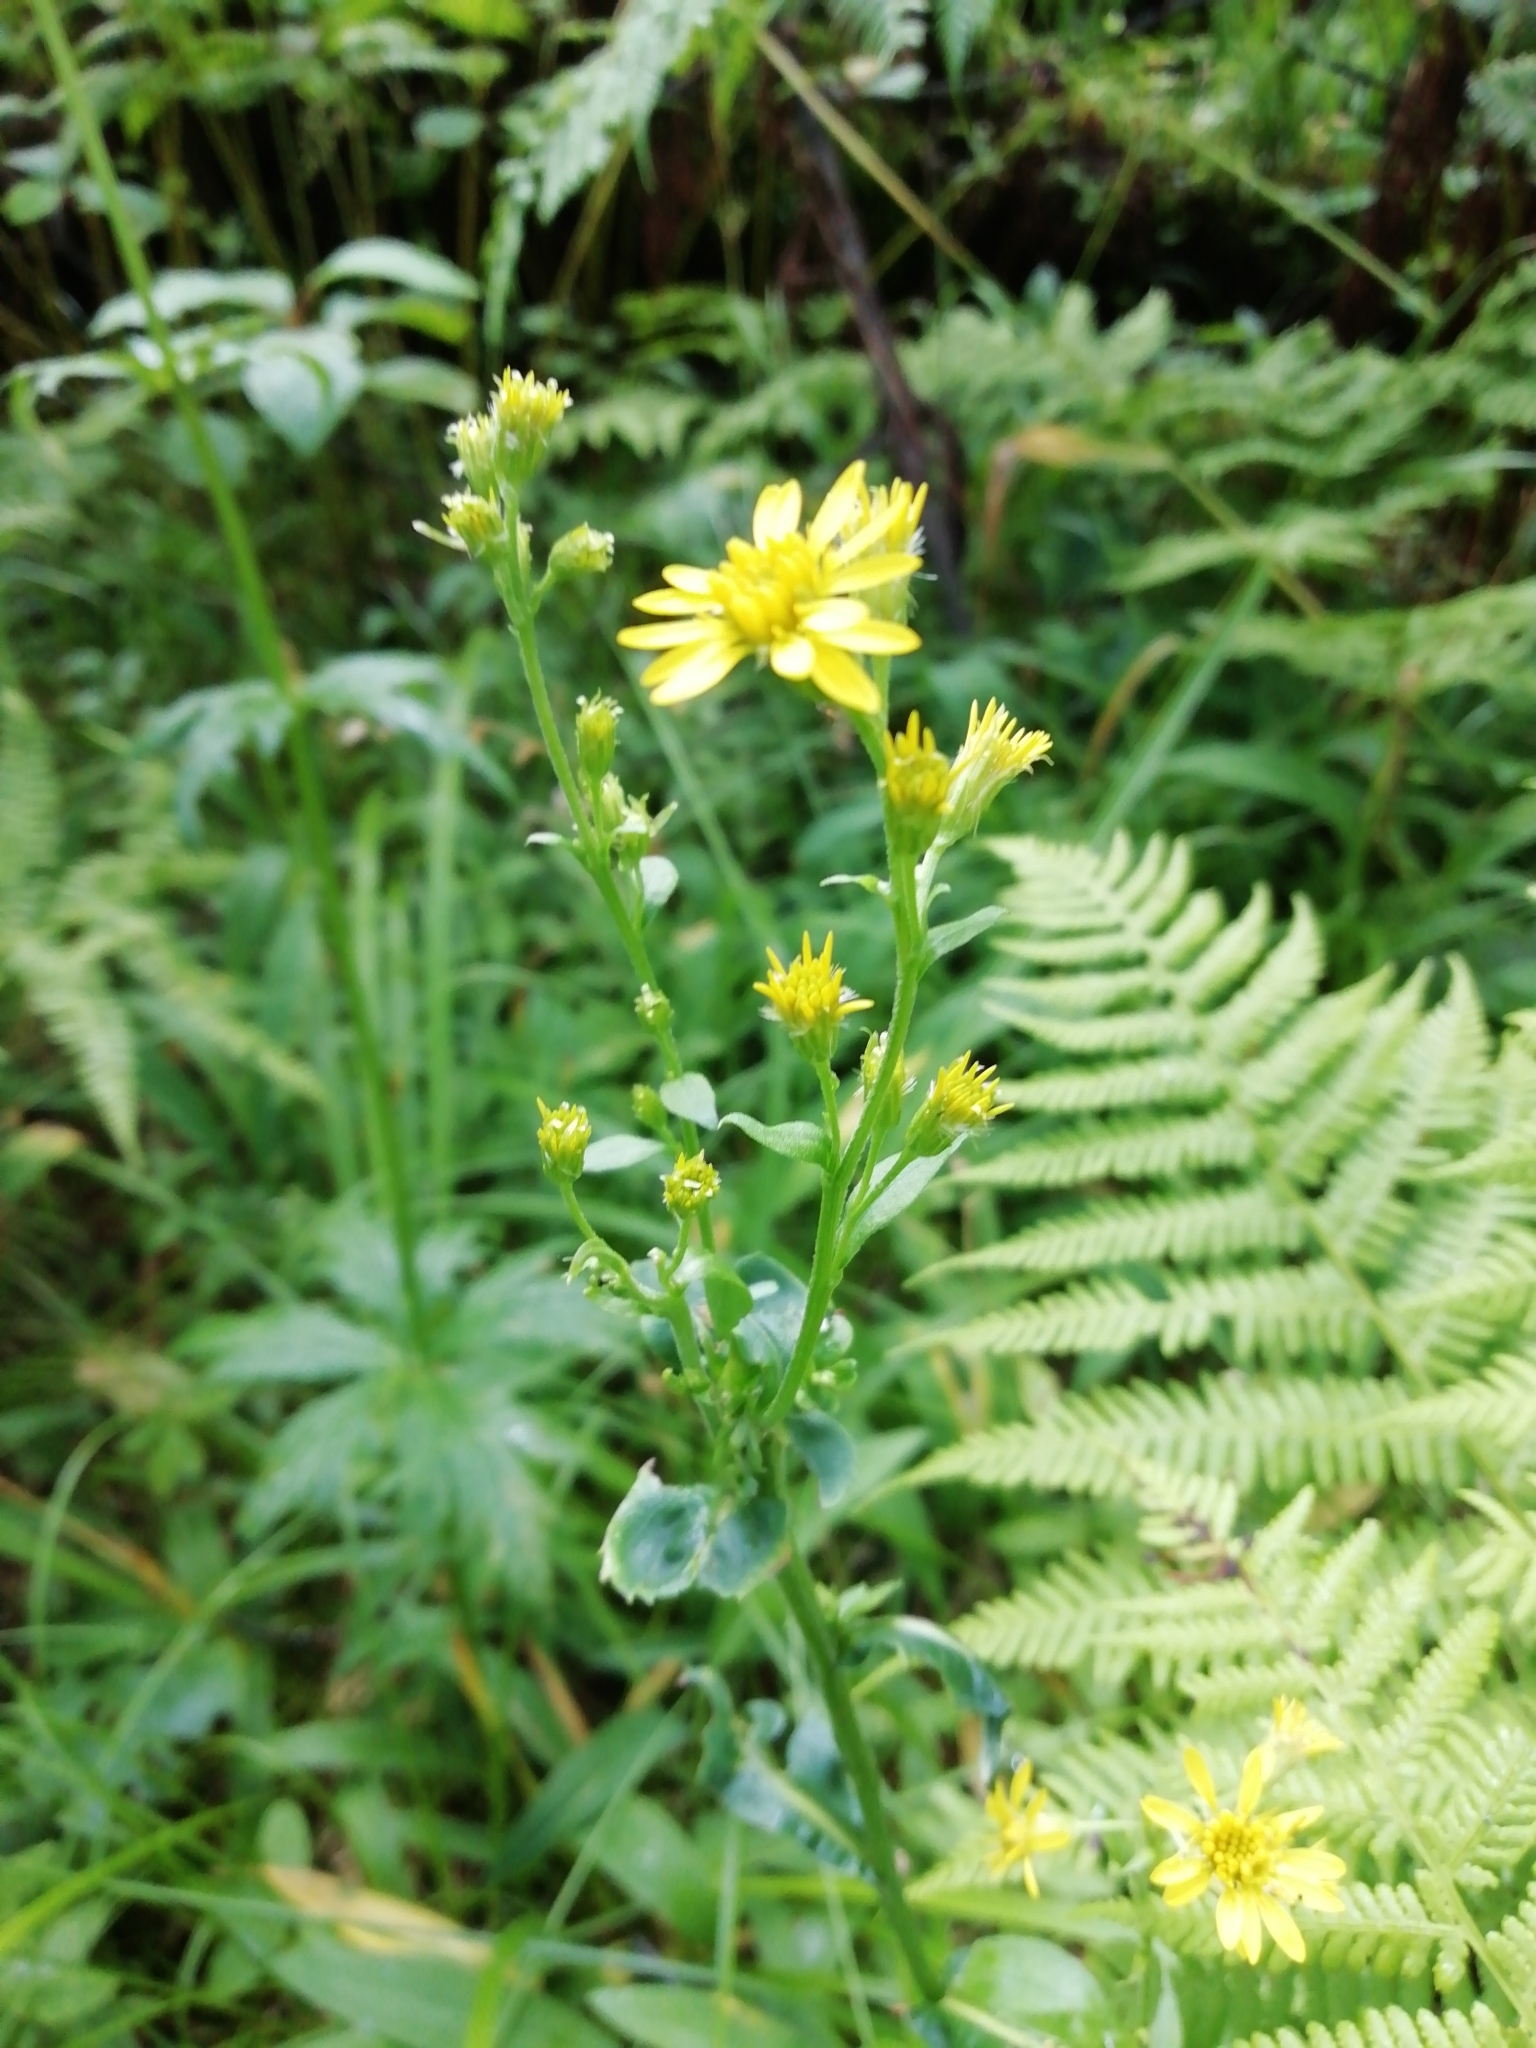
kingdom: Plantae
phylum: Tracheophyta
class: Magnoliopsida
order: Asterales
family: Asteraceae
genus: Solidago
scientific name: Solidago virgaurea
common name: Goldenrod
